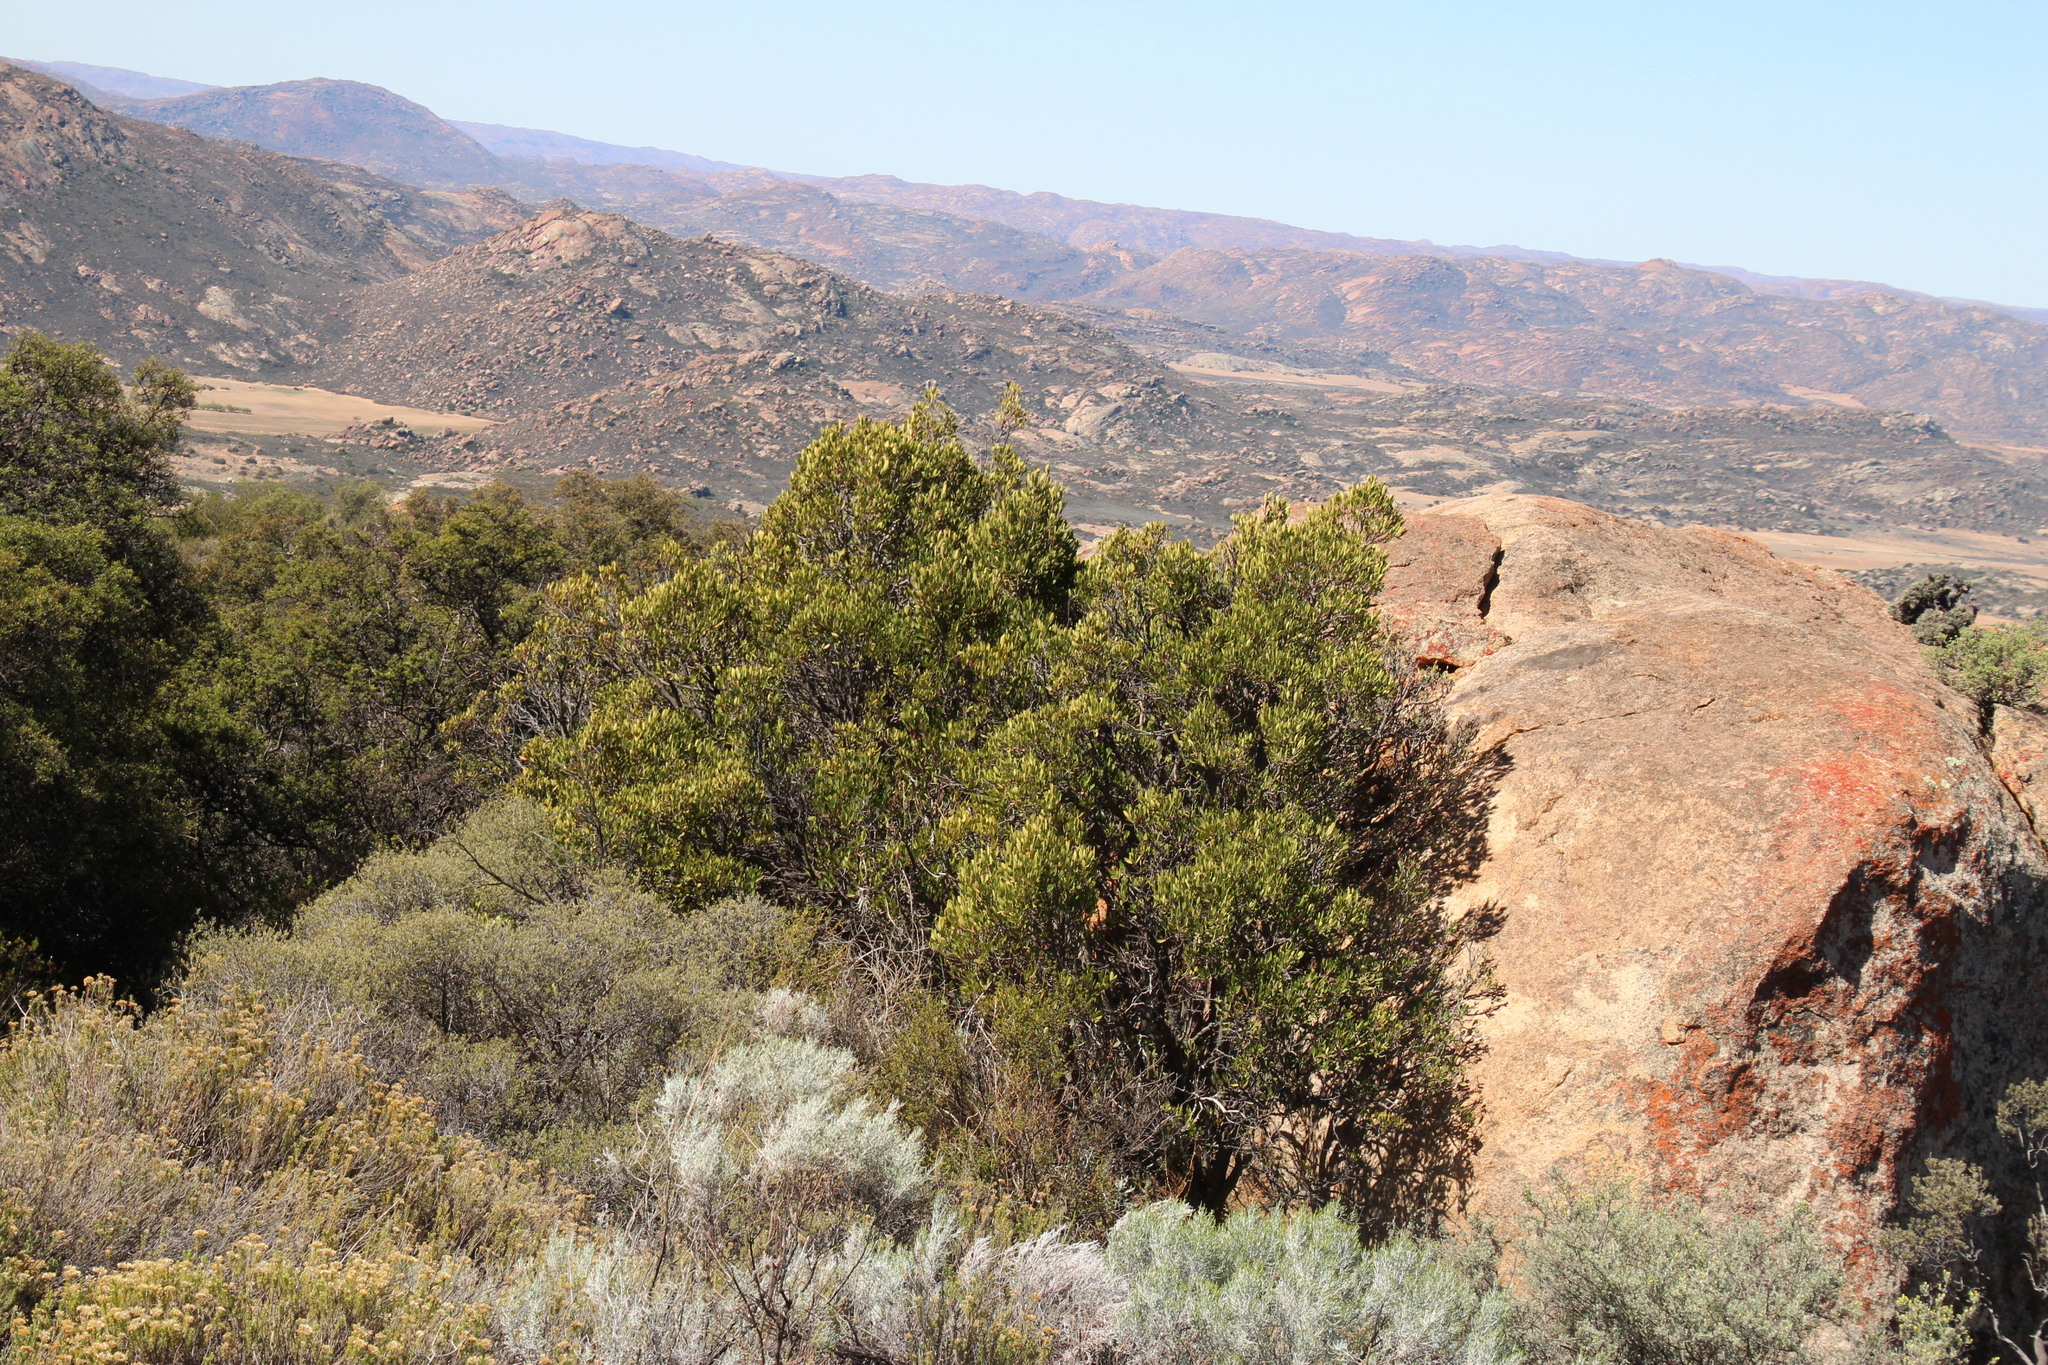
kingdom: Plantae
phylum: Tracheophyta
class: Magnoliopsida
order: Celastrales
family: Celastraceae
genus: Gymnosporia
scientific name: Gymnosporia laurina
